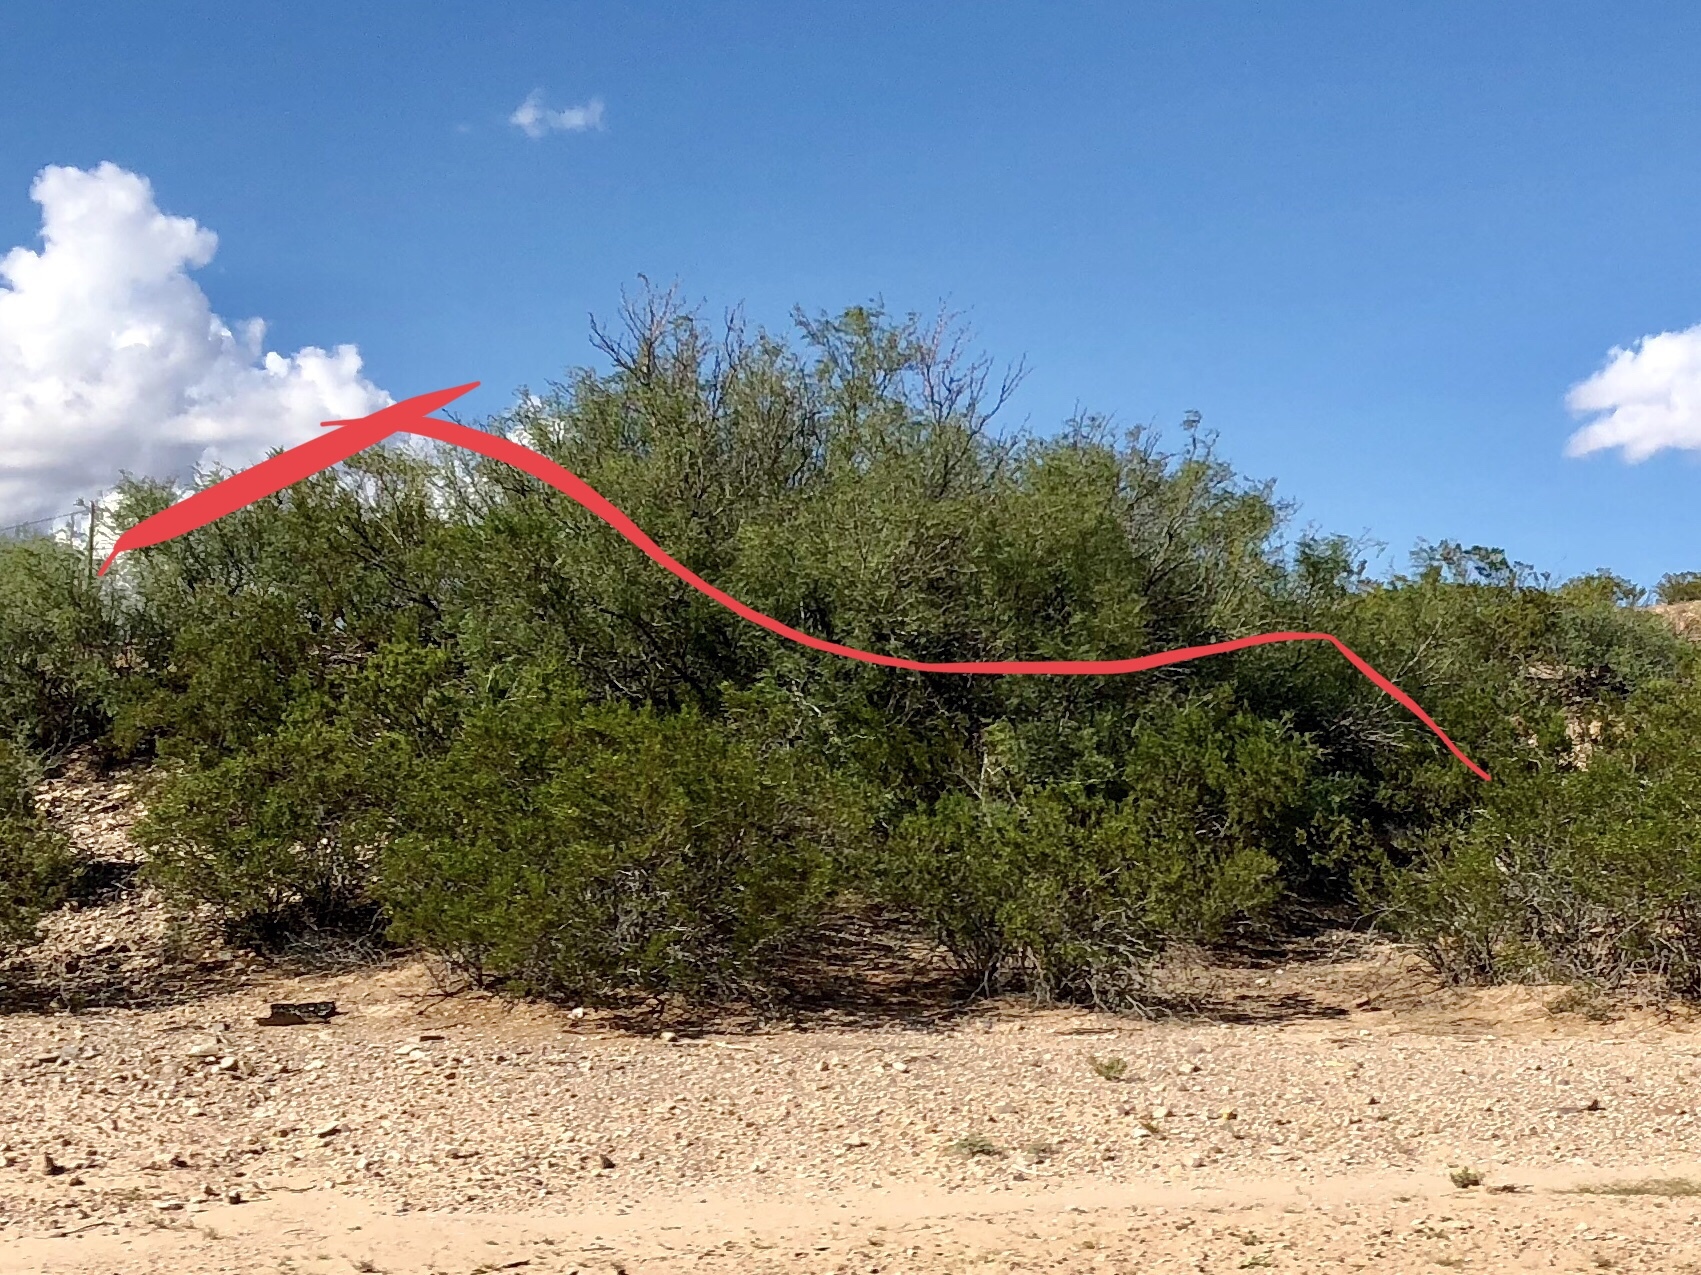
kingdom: Plantae
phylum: Tracheophyta
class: Magnoliopsida
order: Zygophyllales
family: Zygophyllaceae
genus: Larrea
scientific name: Larrea tridentata
